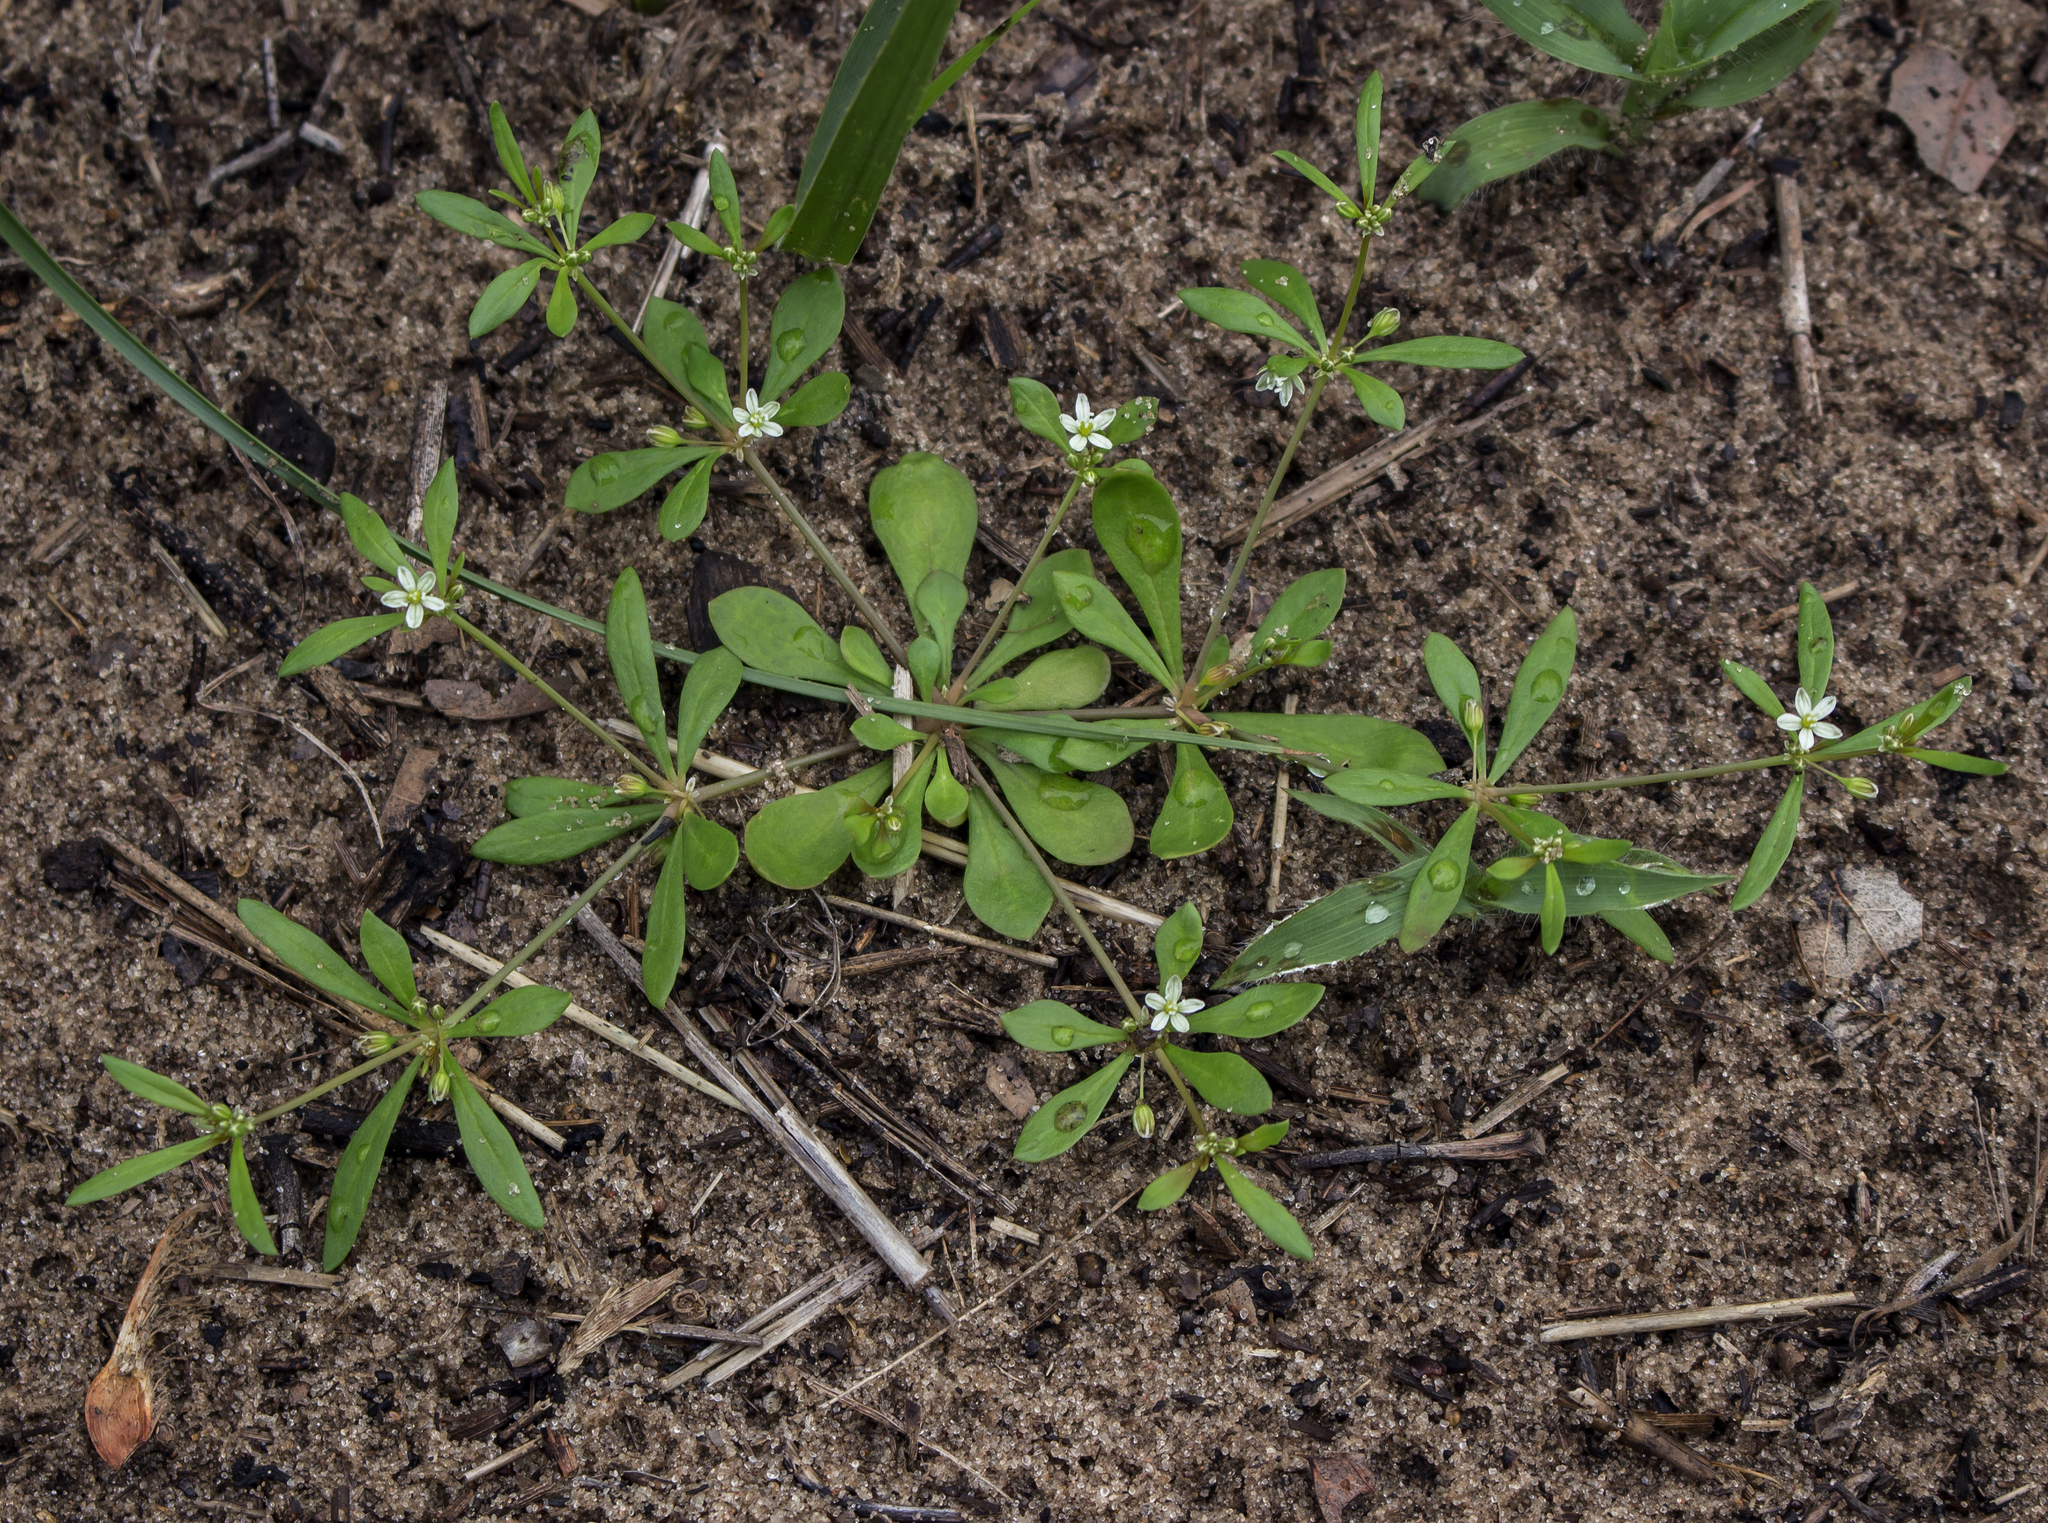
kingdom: Plantae
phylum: Tracheophyta
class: Magnoliopsida
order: Caryophyllales
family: Molluginaceae
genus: Mollugo
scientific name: Mollugo verticillata
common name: Green carpetweed
